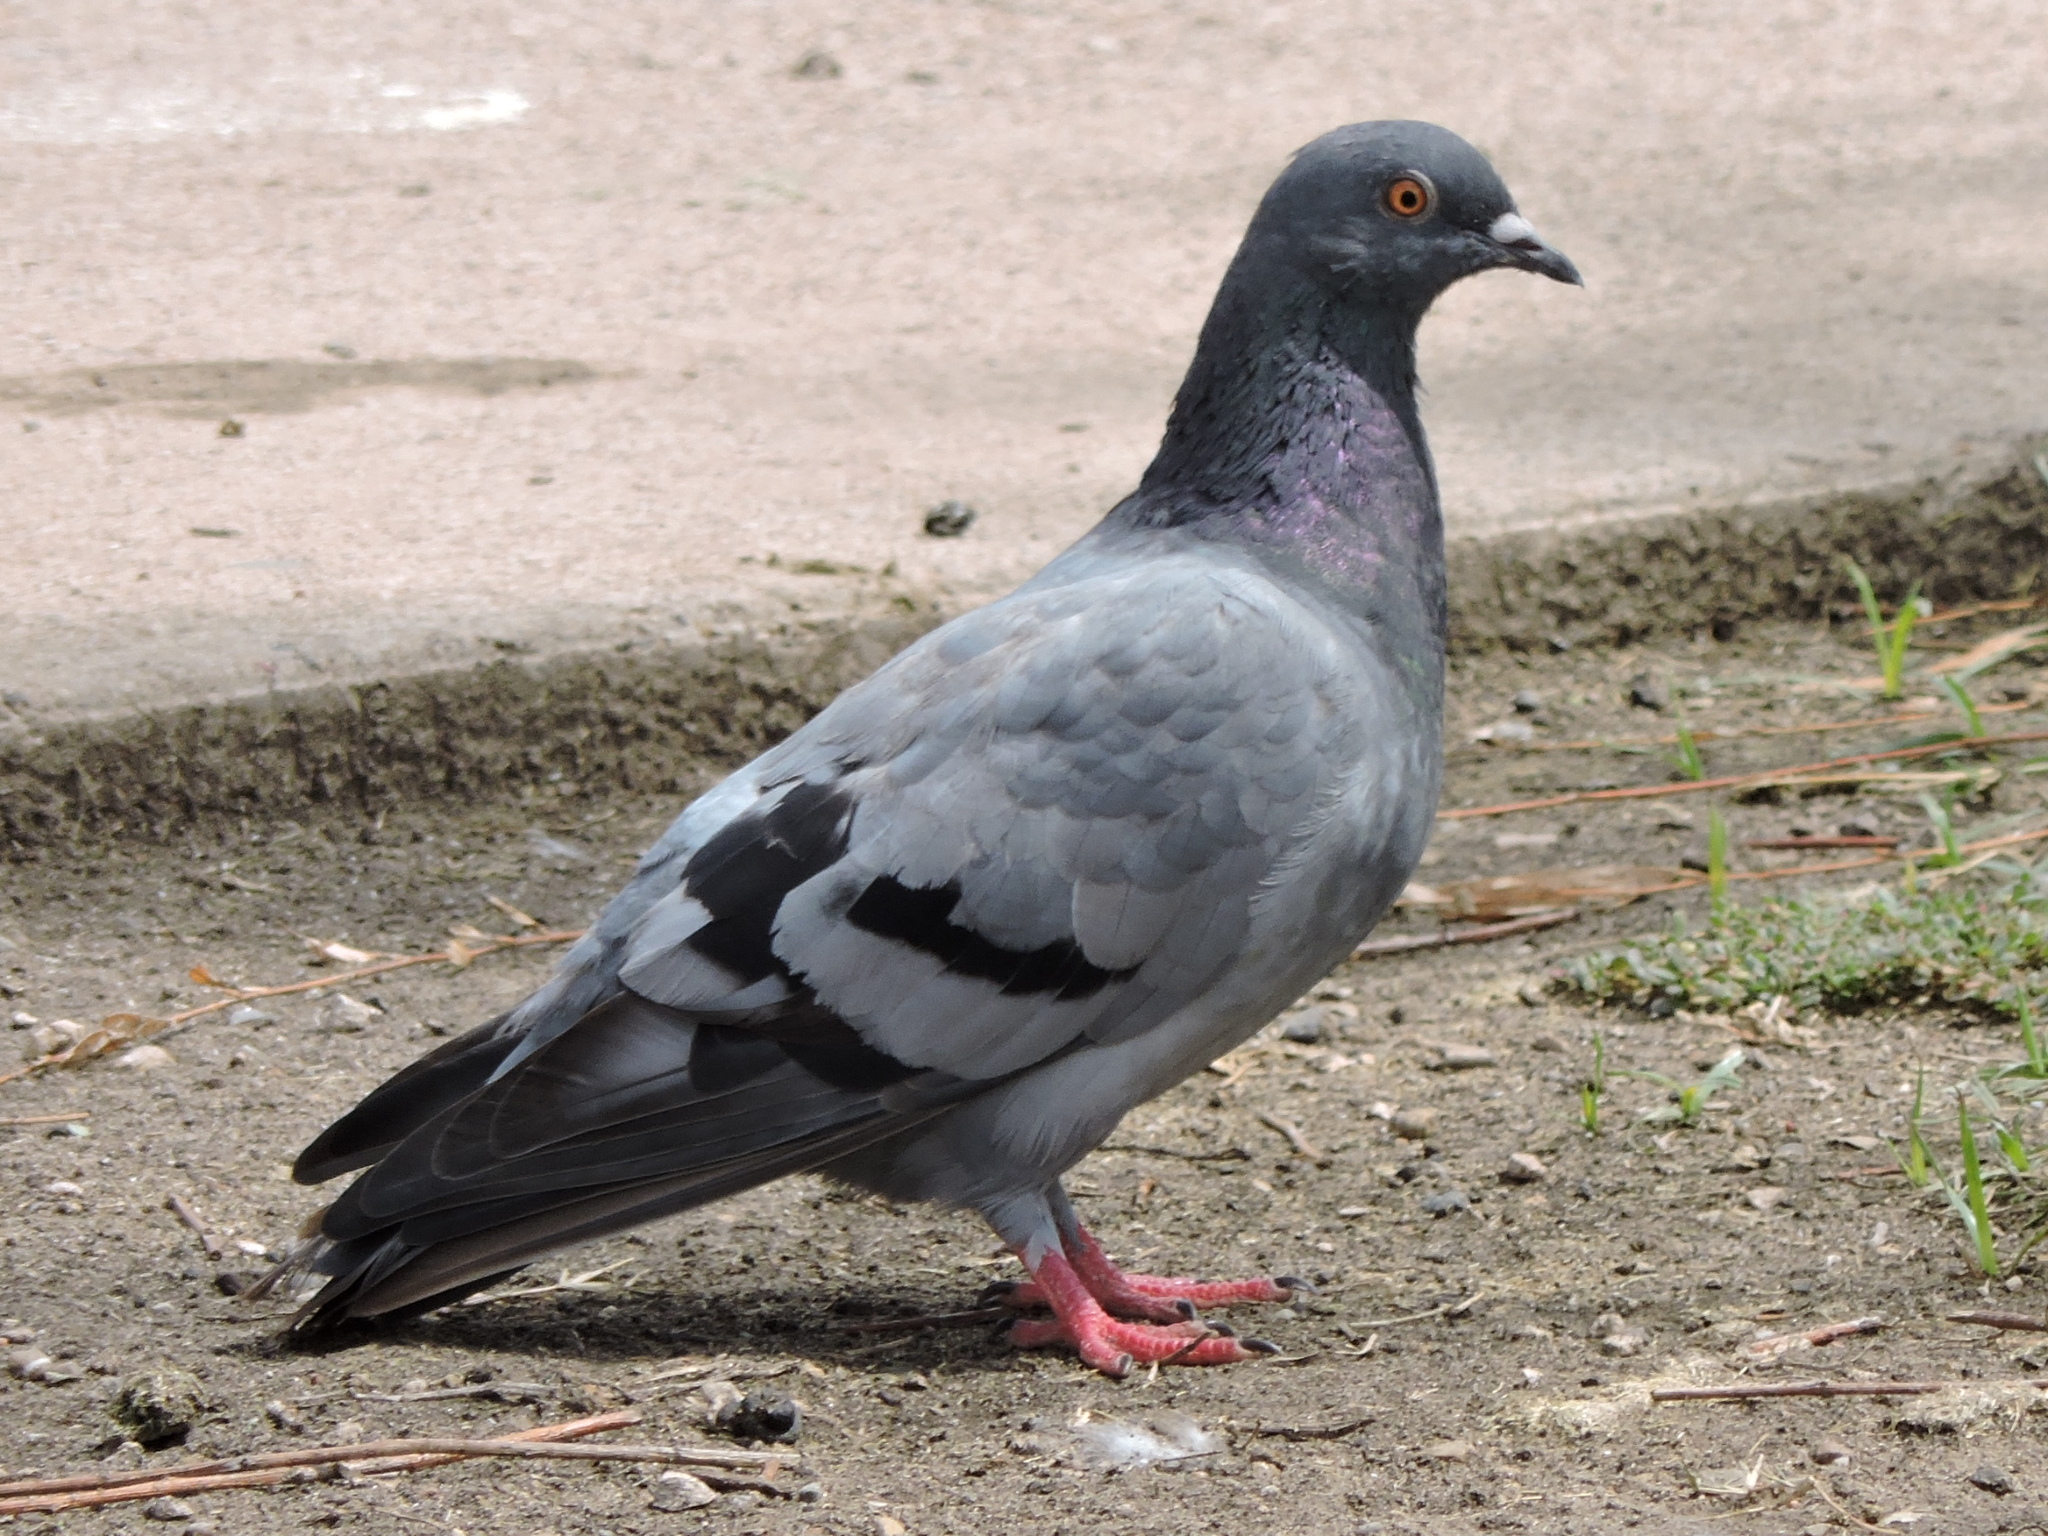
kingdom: Animalia
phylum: Chordata
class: Aves
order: Columbiformes
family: Columbidae
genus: Columba
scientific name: Columba livia
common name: Rock pigeon
